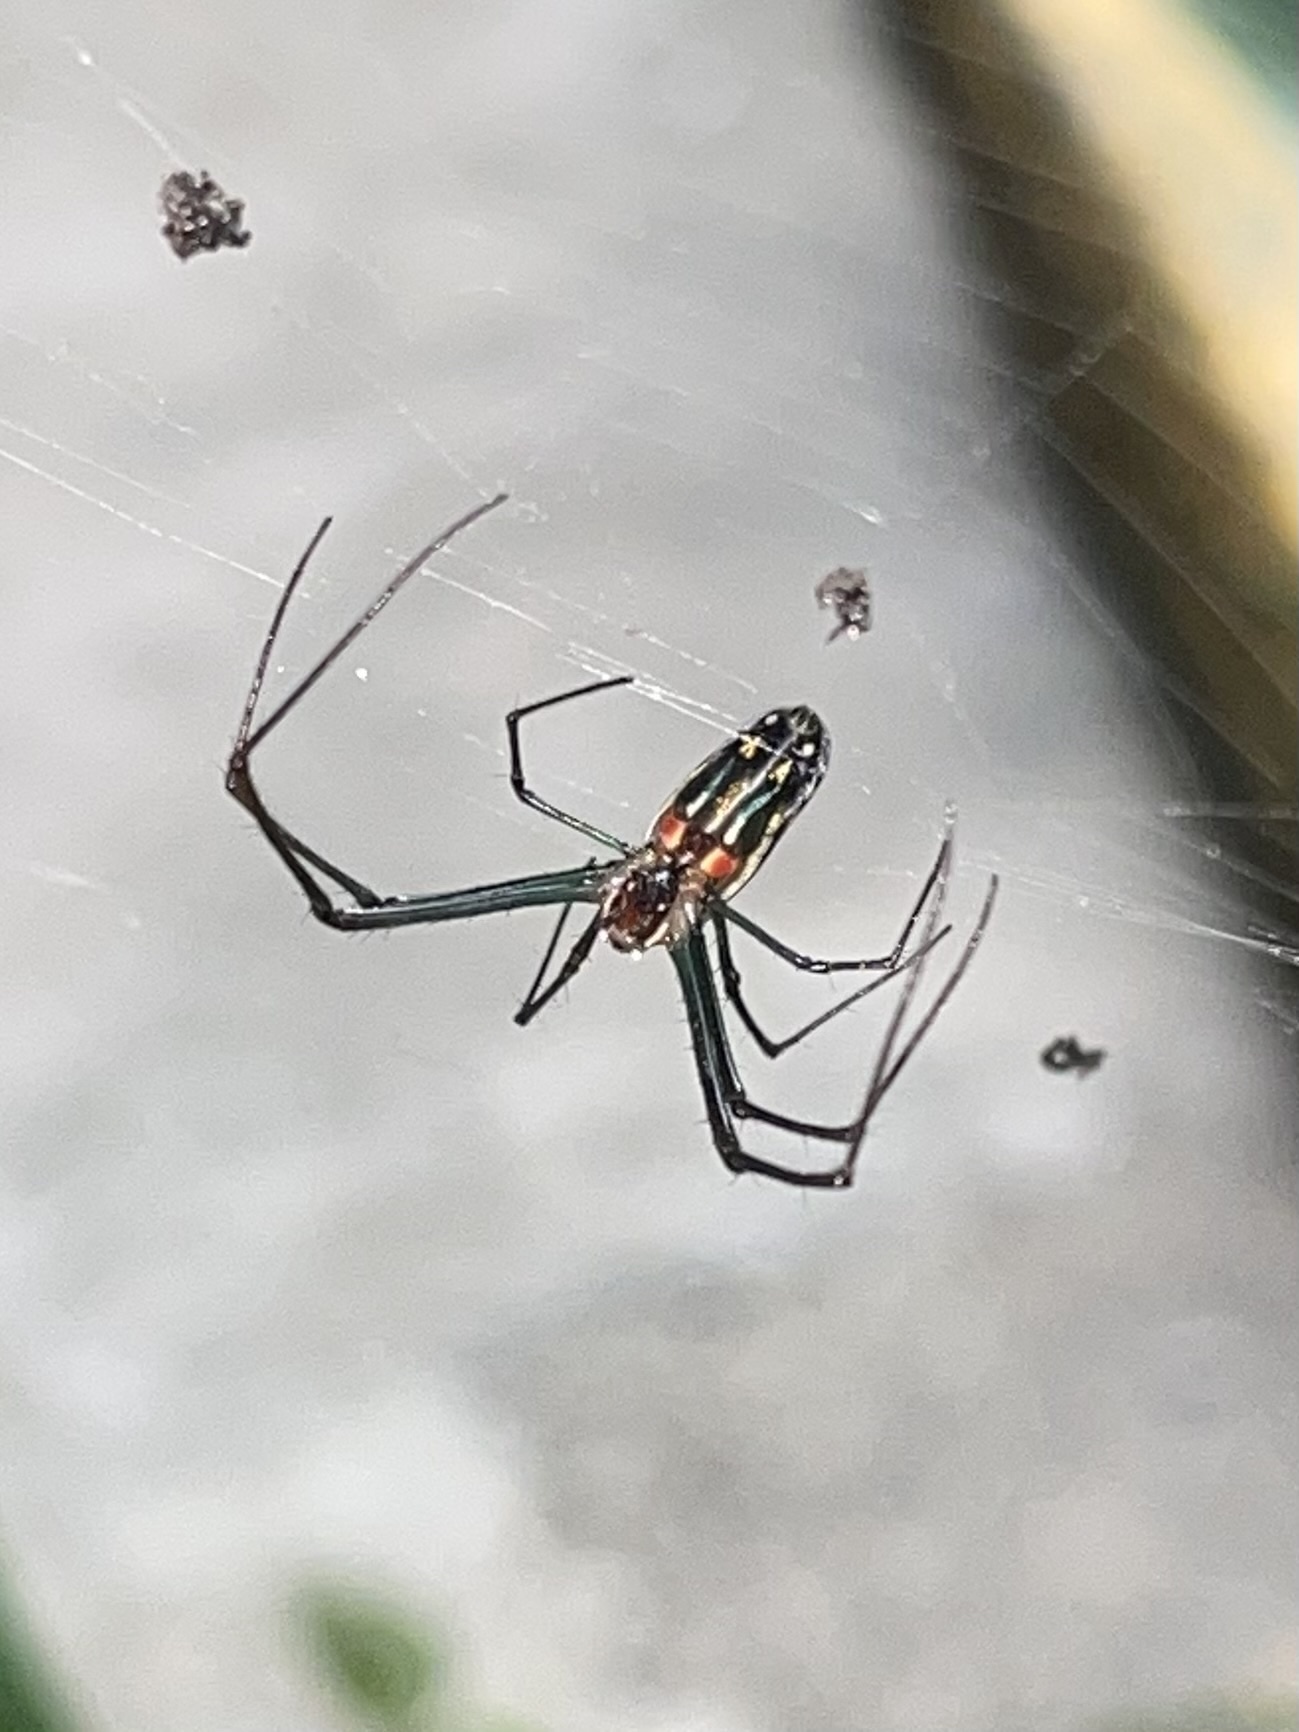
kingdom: Animalia
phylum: Arthropoda
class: Arachnida
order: Araneae
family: Tetragnathidae
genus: Leucauge
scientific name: Leucauge argyra
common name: Longjawed orb weavers
